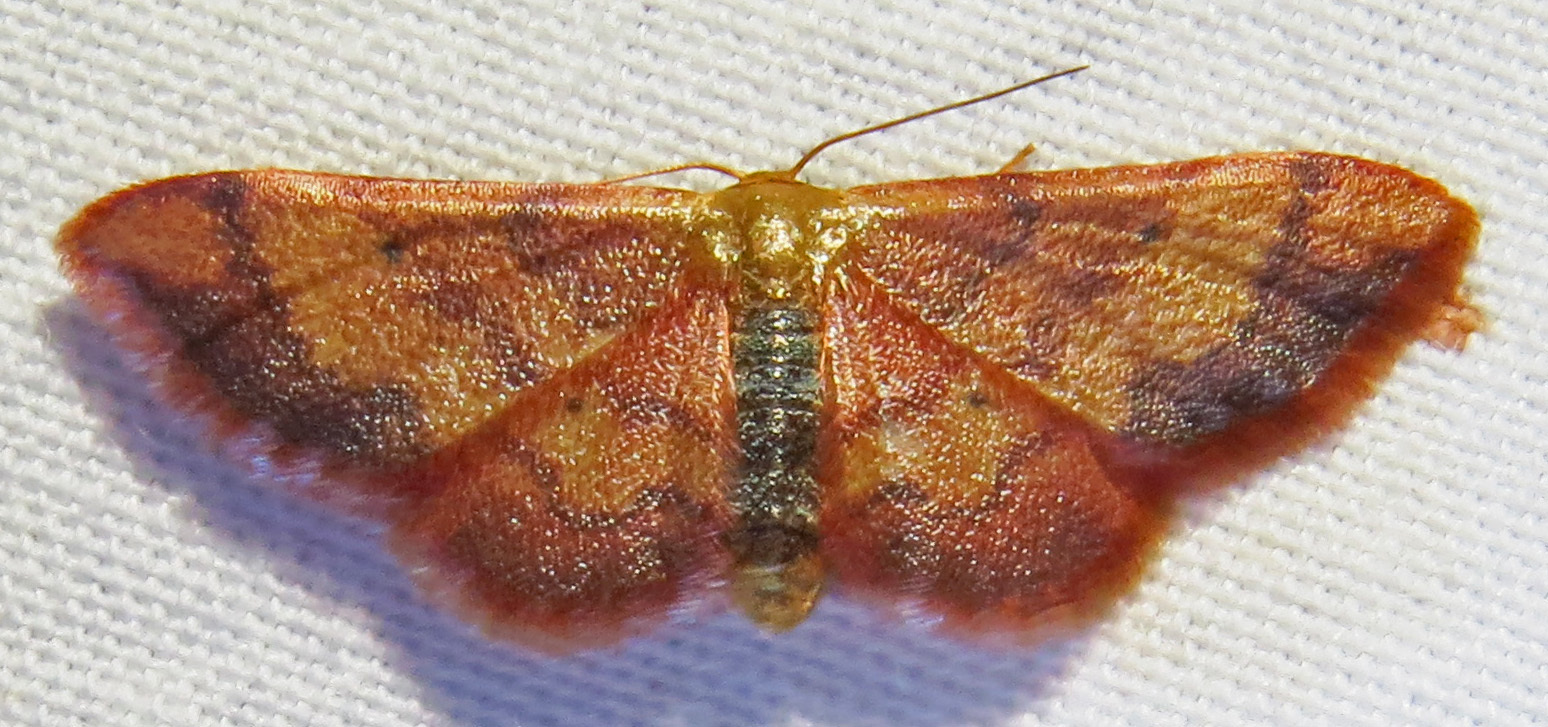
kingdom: Animalia
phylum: Arthropoda
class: Insecta
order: Lepidoptera
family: Geometridae
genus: Idaea
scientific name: Idaea demissaria
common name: Red-bordered wave
